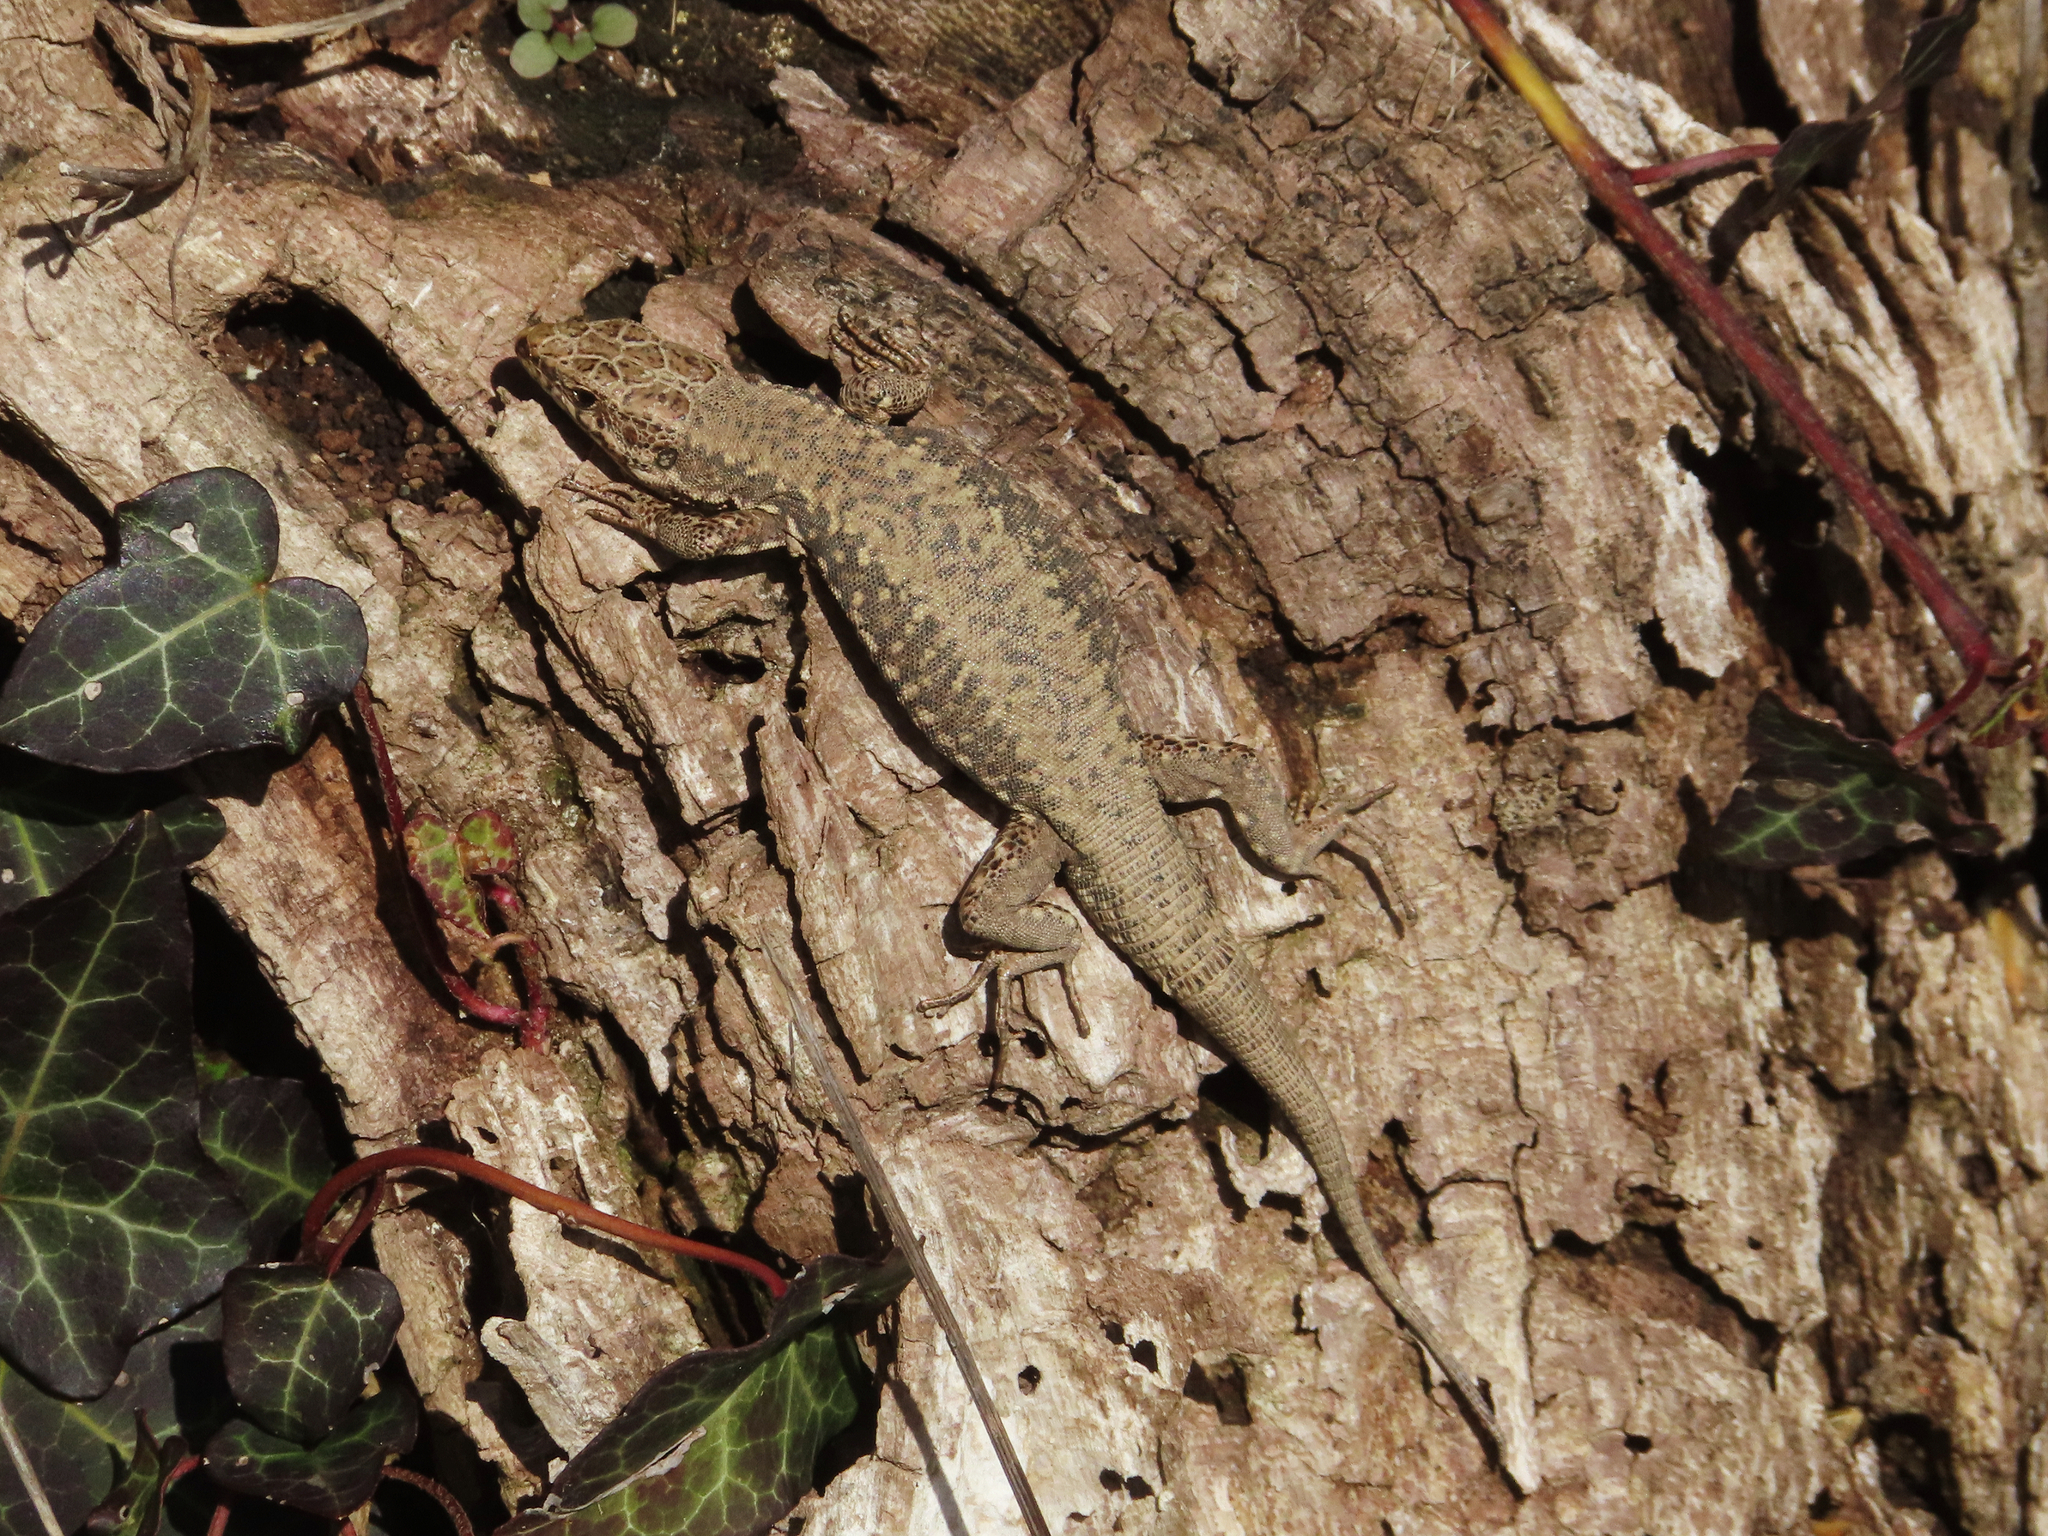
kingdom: Animalia
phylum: Chordata
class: Squamata
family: Lacertidae
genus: Podarcis
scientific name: Podarcis muralis
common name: Common wall lizard
